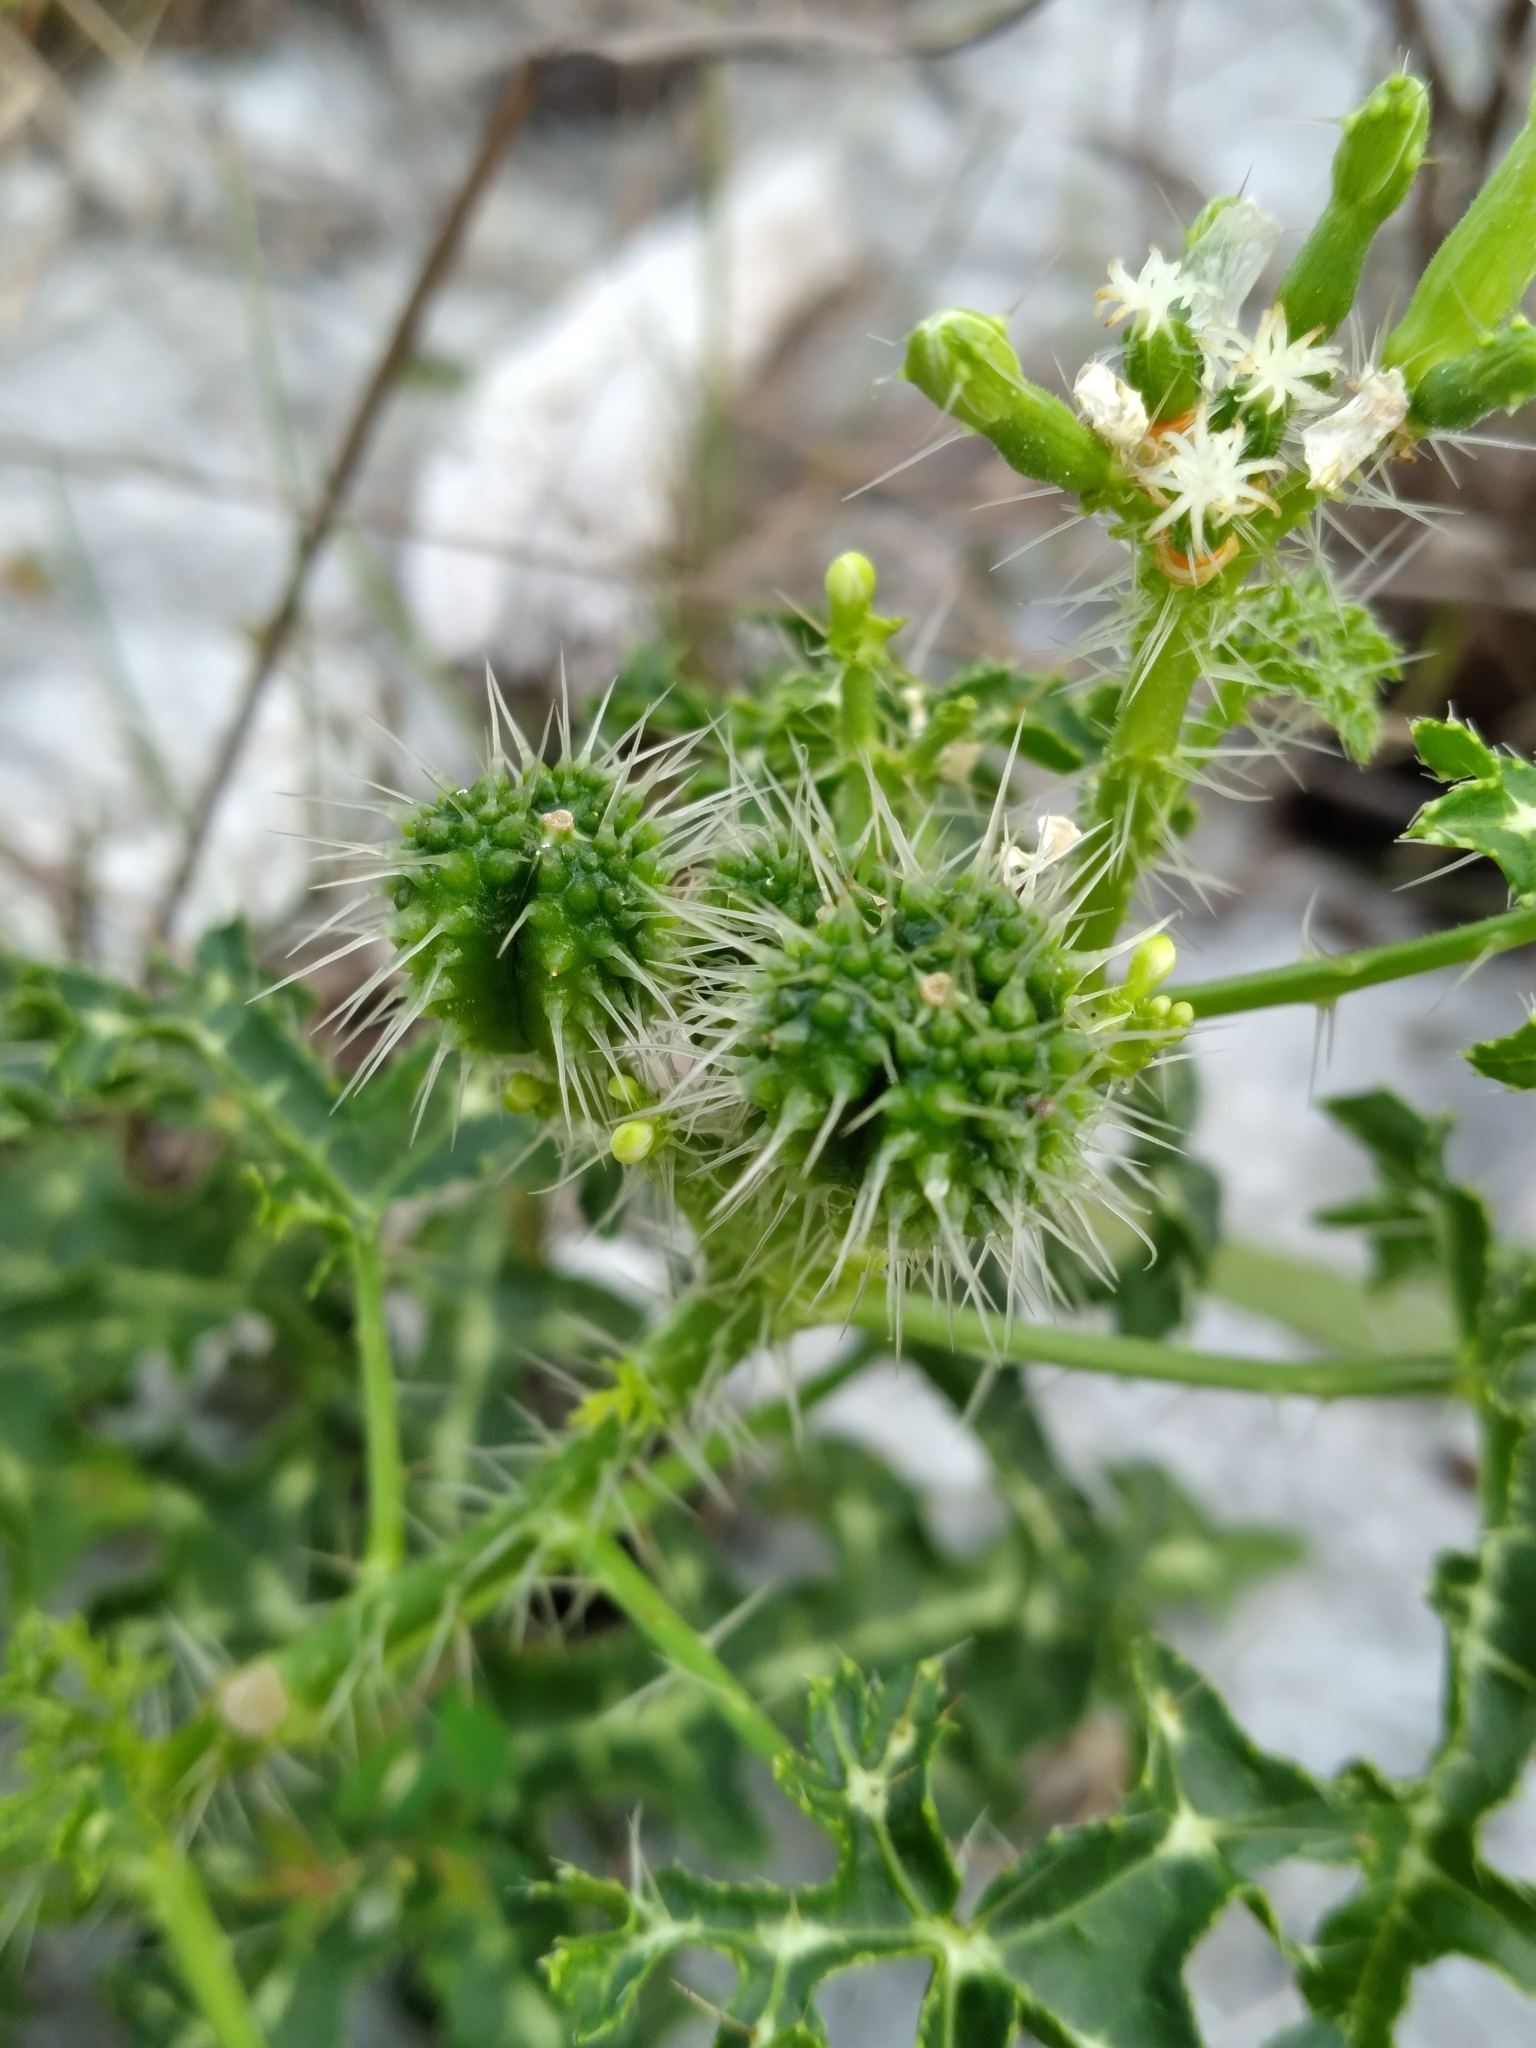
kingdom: Plantae
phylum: Tracheophyta
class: Magnoliopsida
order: Malpighiales
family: Euphorbiaceae
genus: Cnidoscolus
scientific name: Cnidoscolus stimulosus
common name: Bull-nettle
